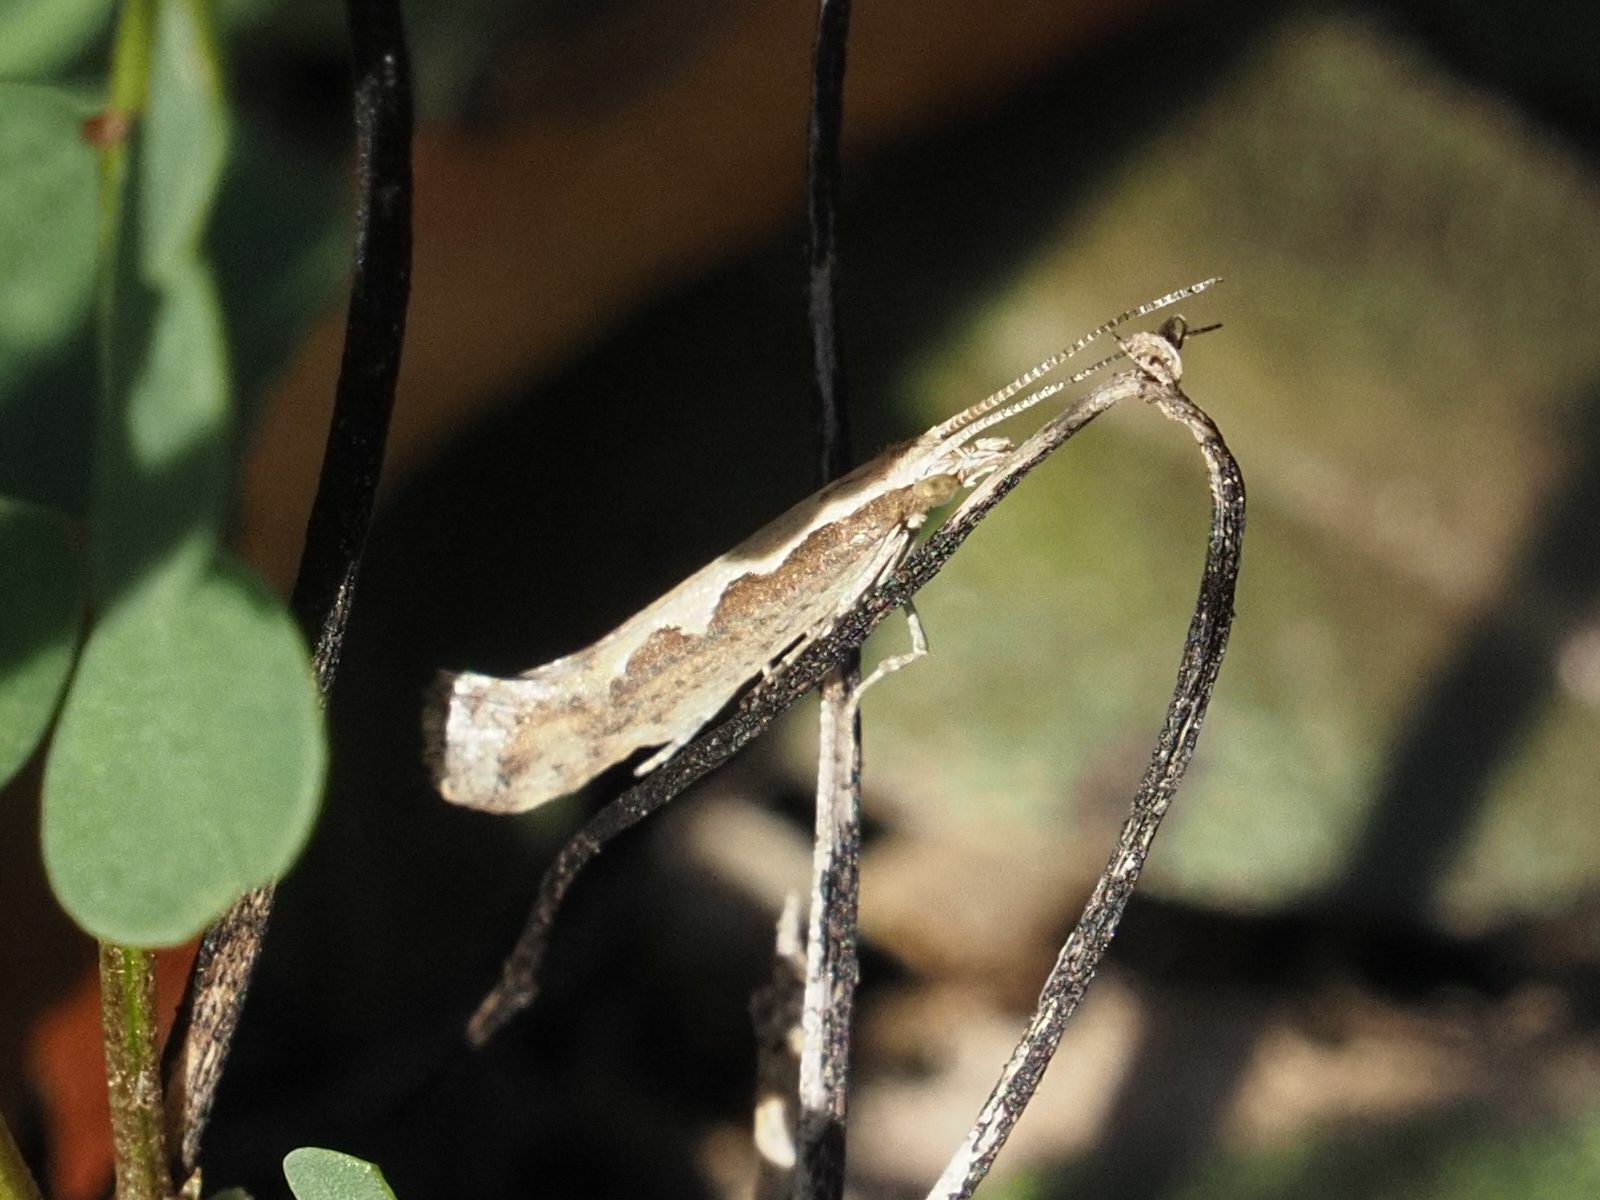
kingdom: Animalia
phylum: Arthropoda
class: Insecta
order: Lepidoptera
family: Plutellidae
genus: Plutella
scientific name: Plutella xylostella
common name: Diamond-back moth
